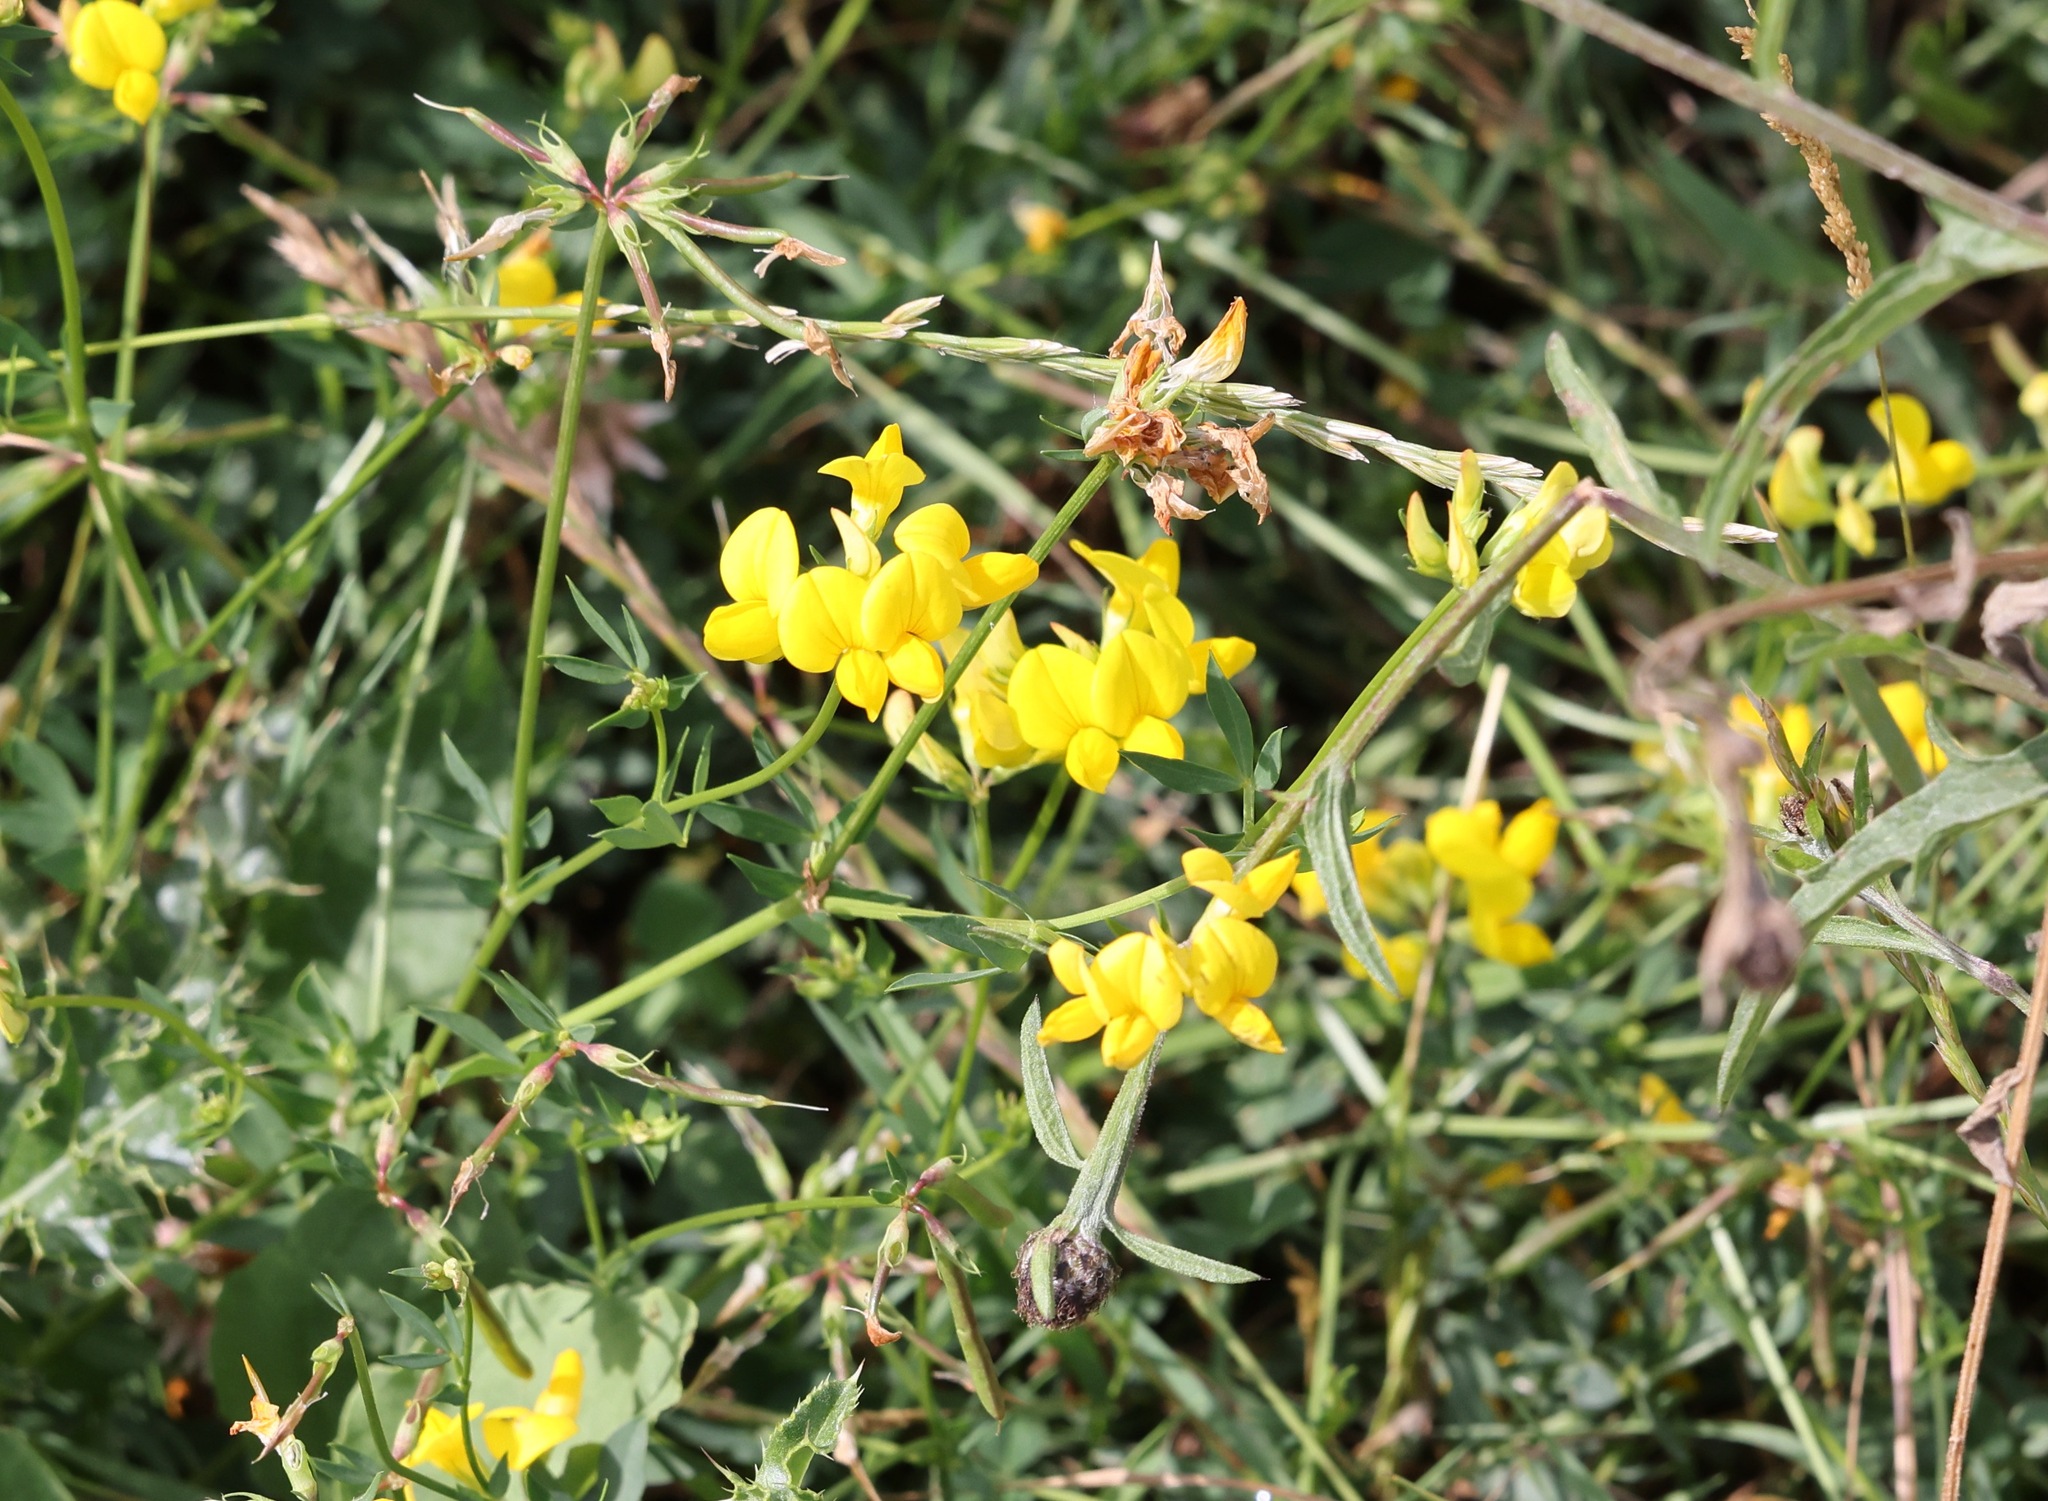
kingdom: Plantae
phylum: Tracheophyta
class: Magnoliopsida
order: Fabales
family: Fabaceae
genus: Lotus
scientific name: Lotus tenuis
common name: Narrow-leaved bird's-foot-trefoil
